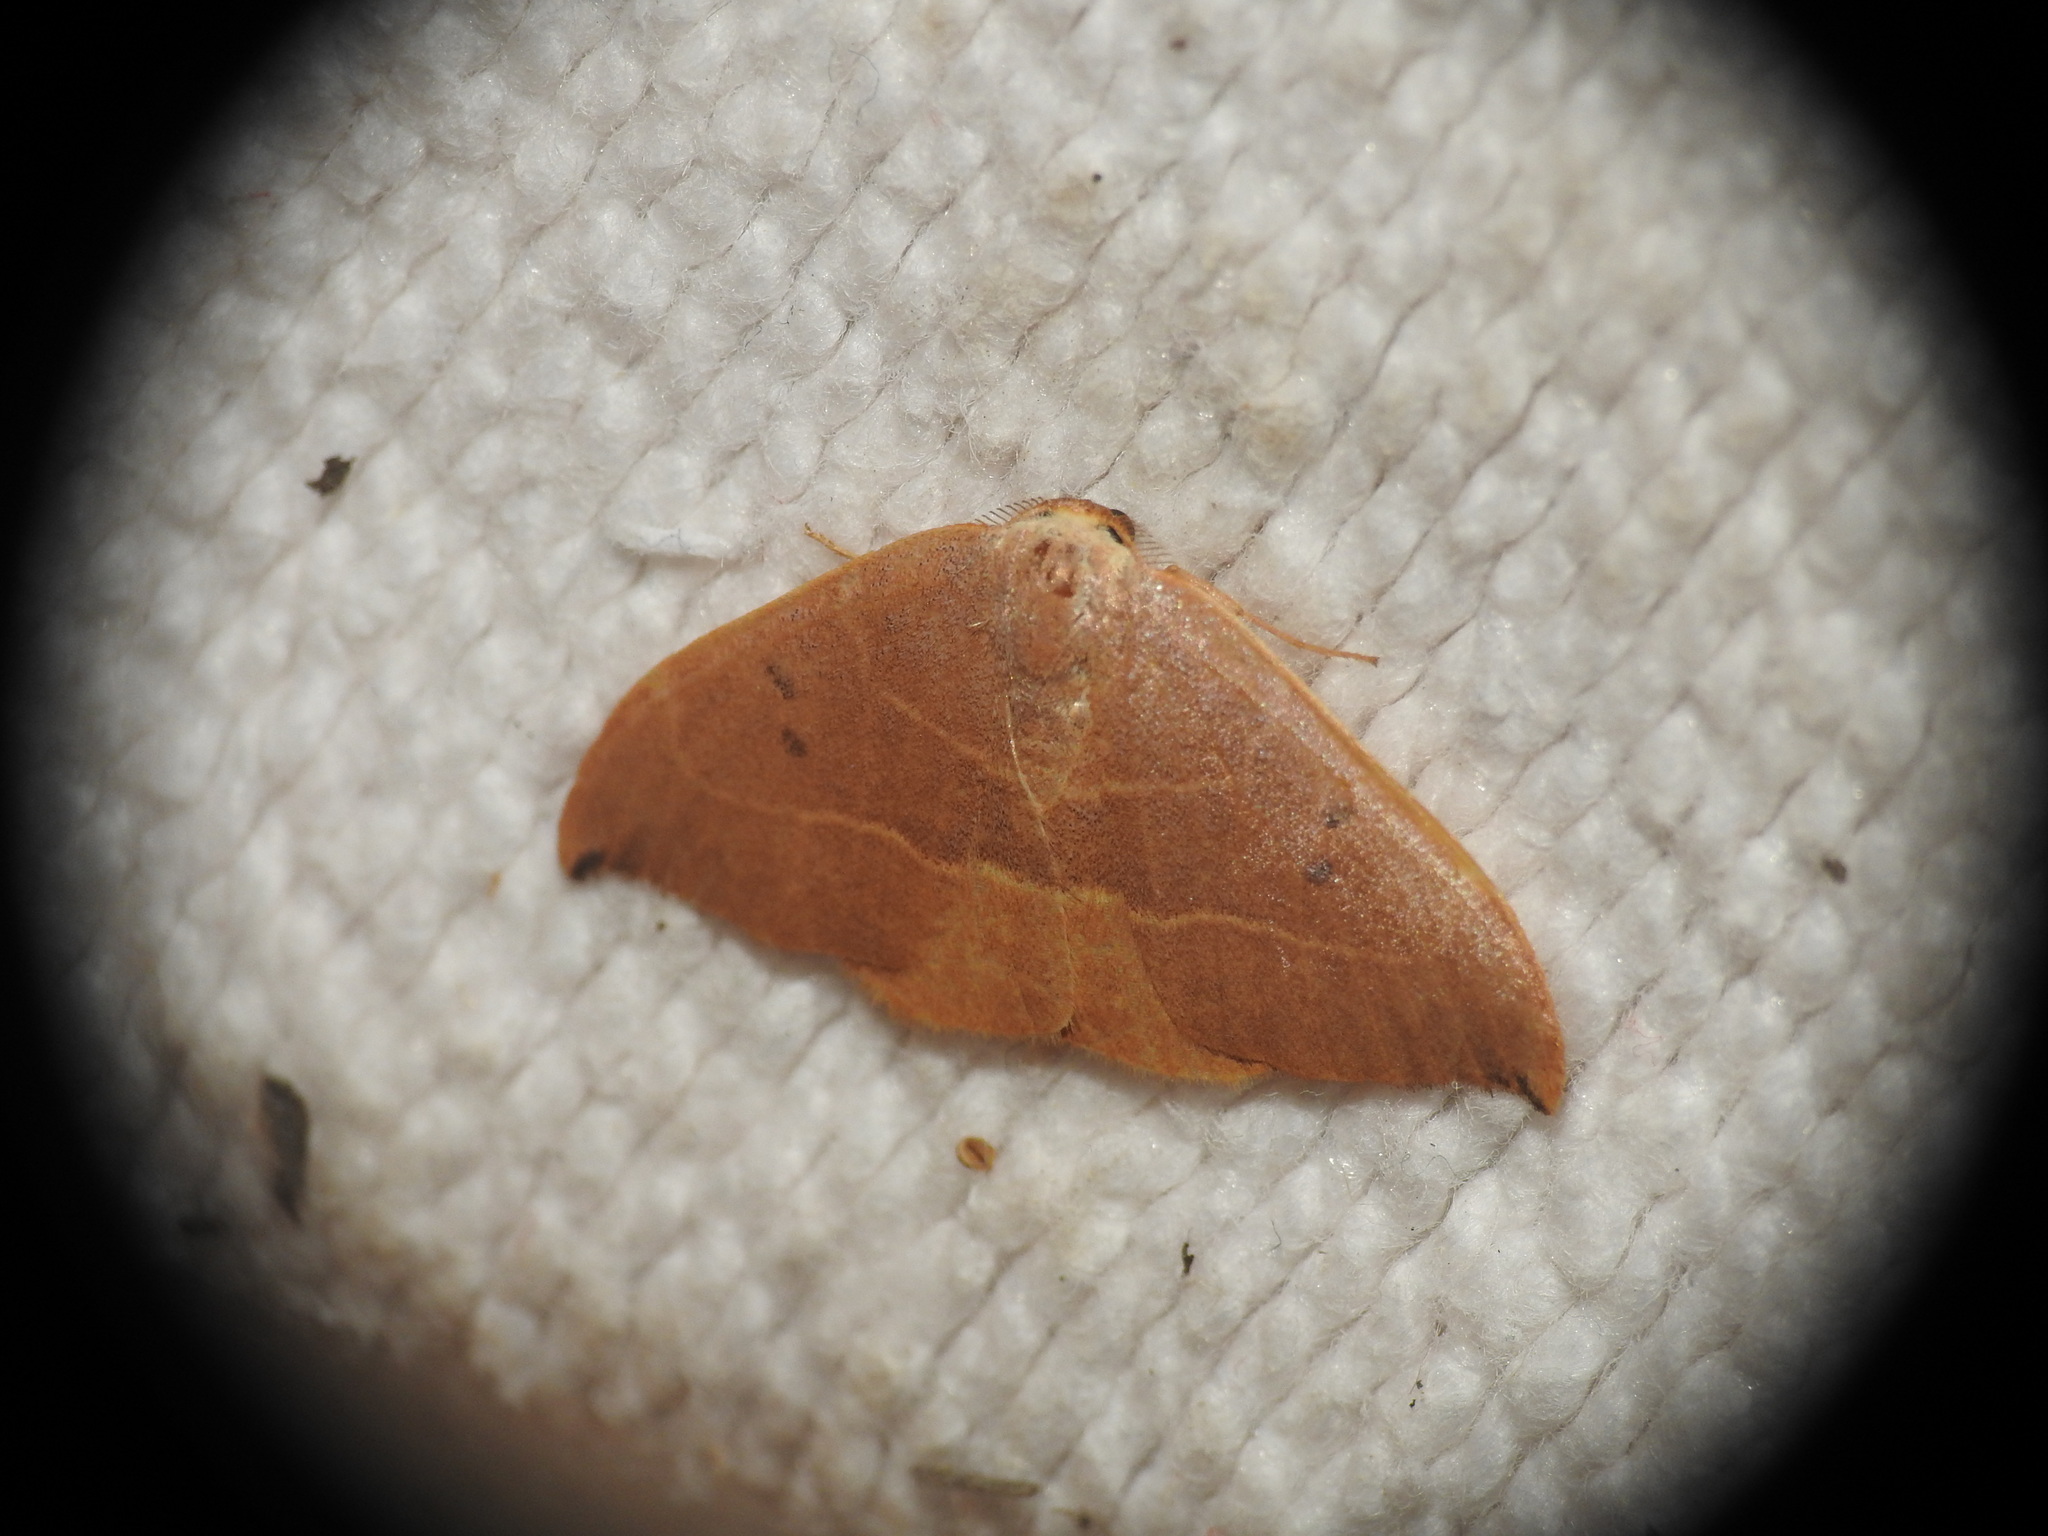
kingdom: Animalia
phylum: Arthropoda
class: Insecta
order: Lepidoptera
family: Drepanidae
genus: Watsonalla
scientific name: Watsonalla uncinula
